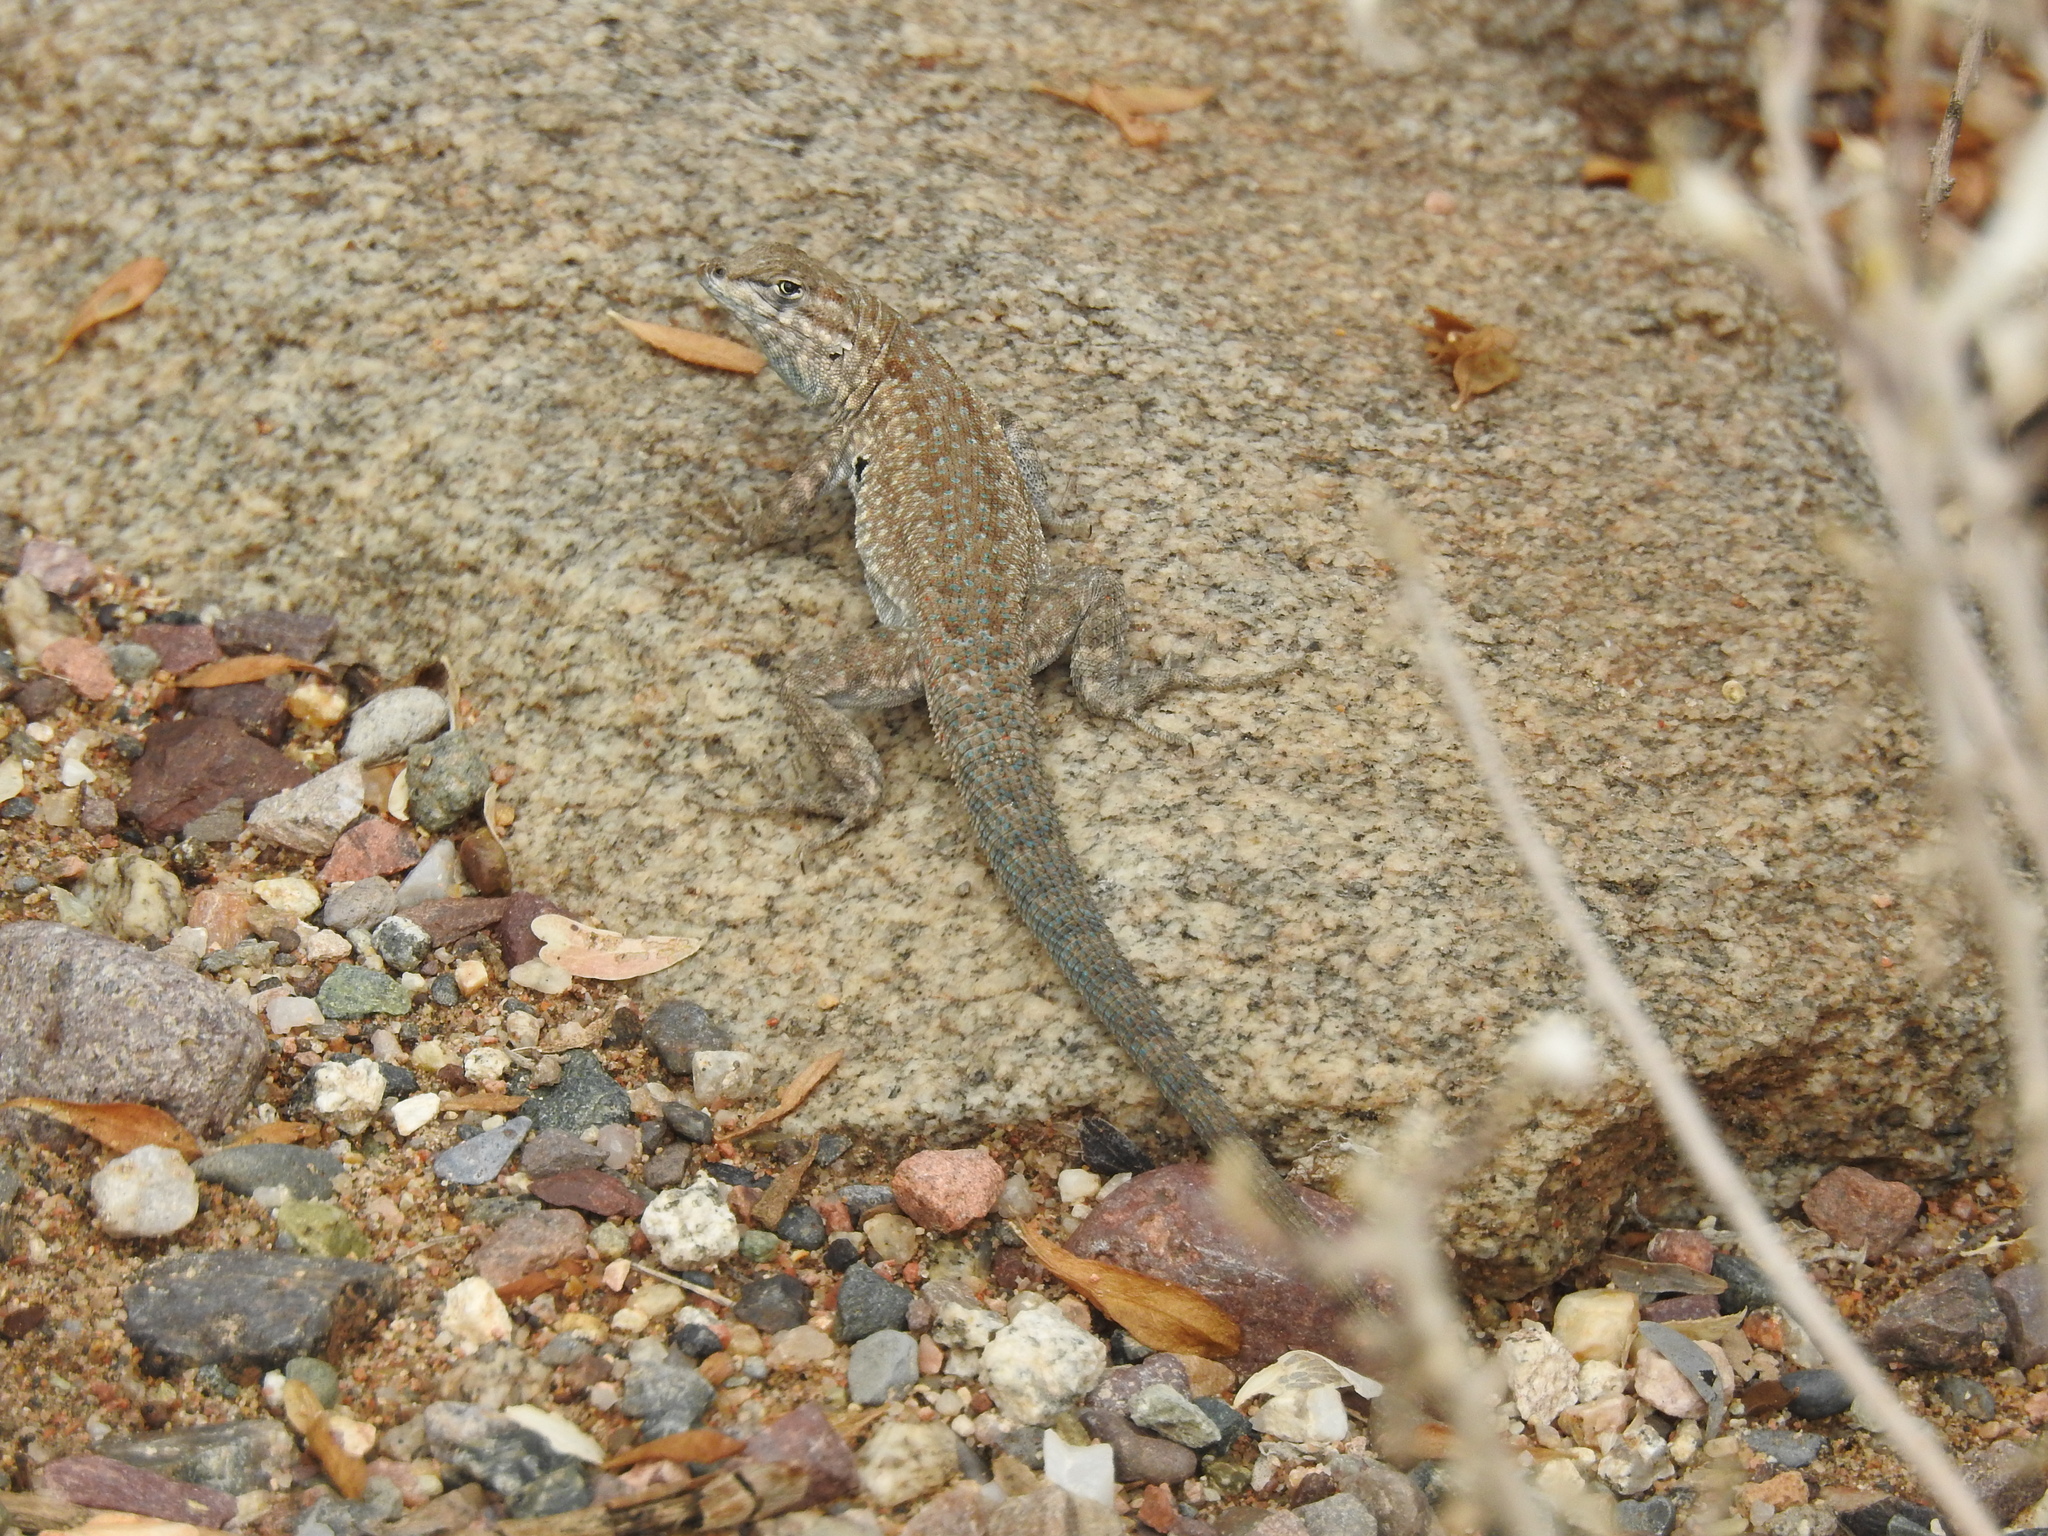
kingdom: Animalia
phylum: Chordata
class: Squamata
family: Phrynosomatidae
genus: Uta
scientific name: Uta stansburiana
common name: Side-blotched lizard
